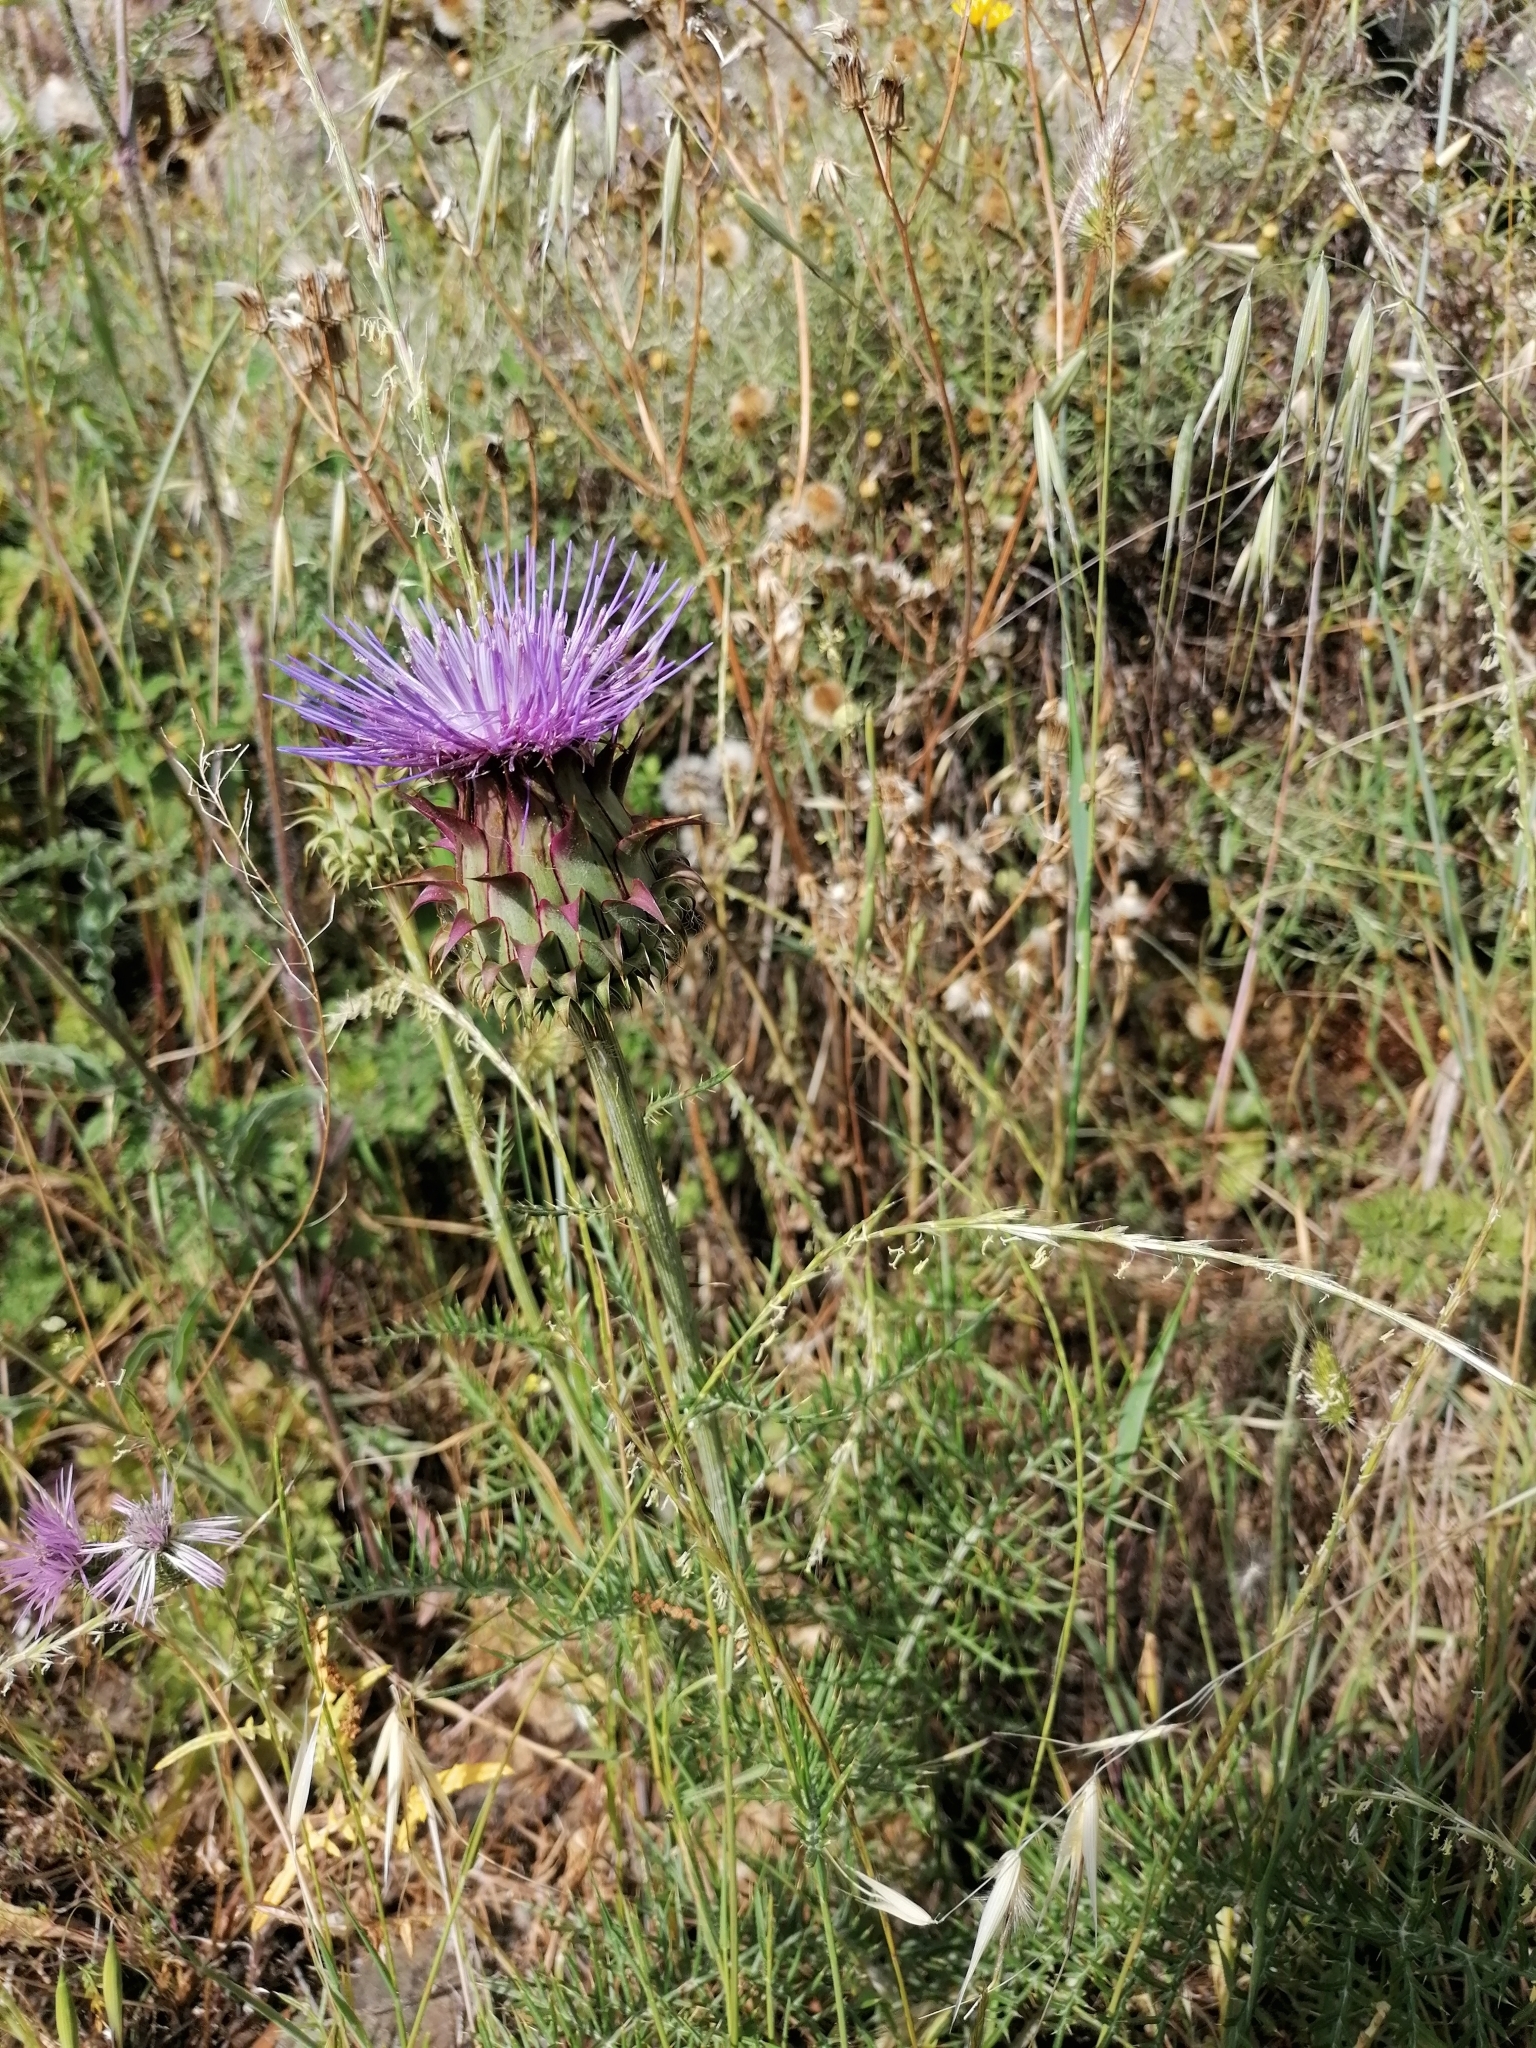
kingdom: Plantae
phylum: Tracheophyta
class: Magnoliopsida
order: Asterales
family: Asteraceae
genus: Cynara
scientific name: Cynara humilis
